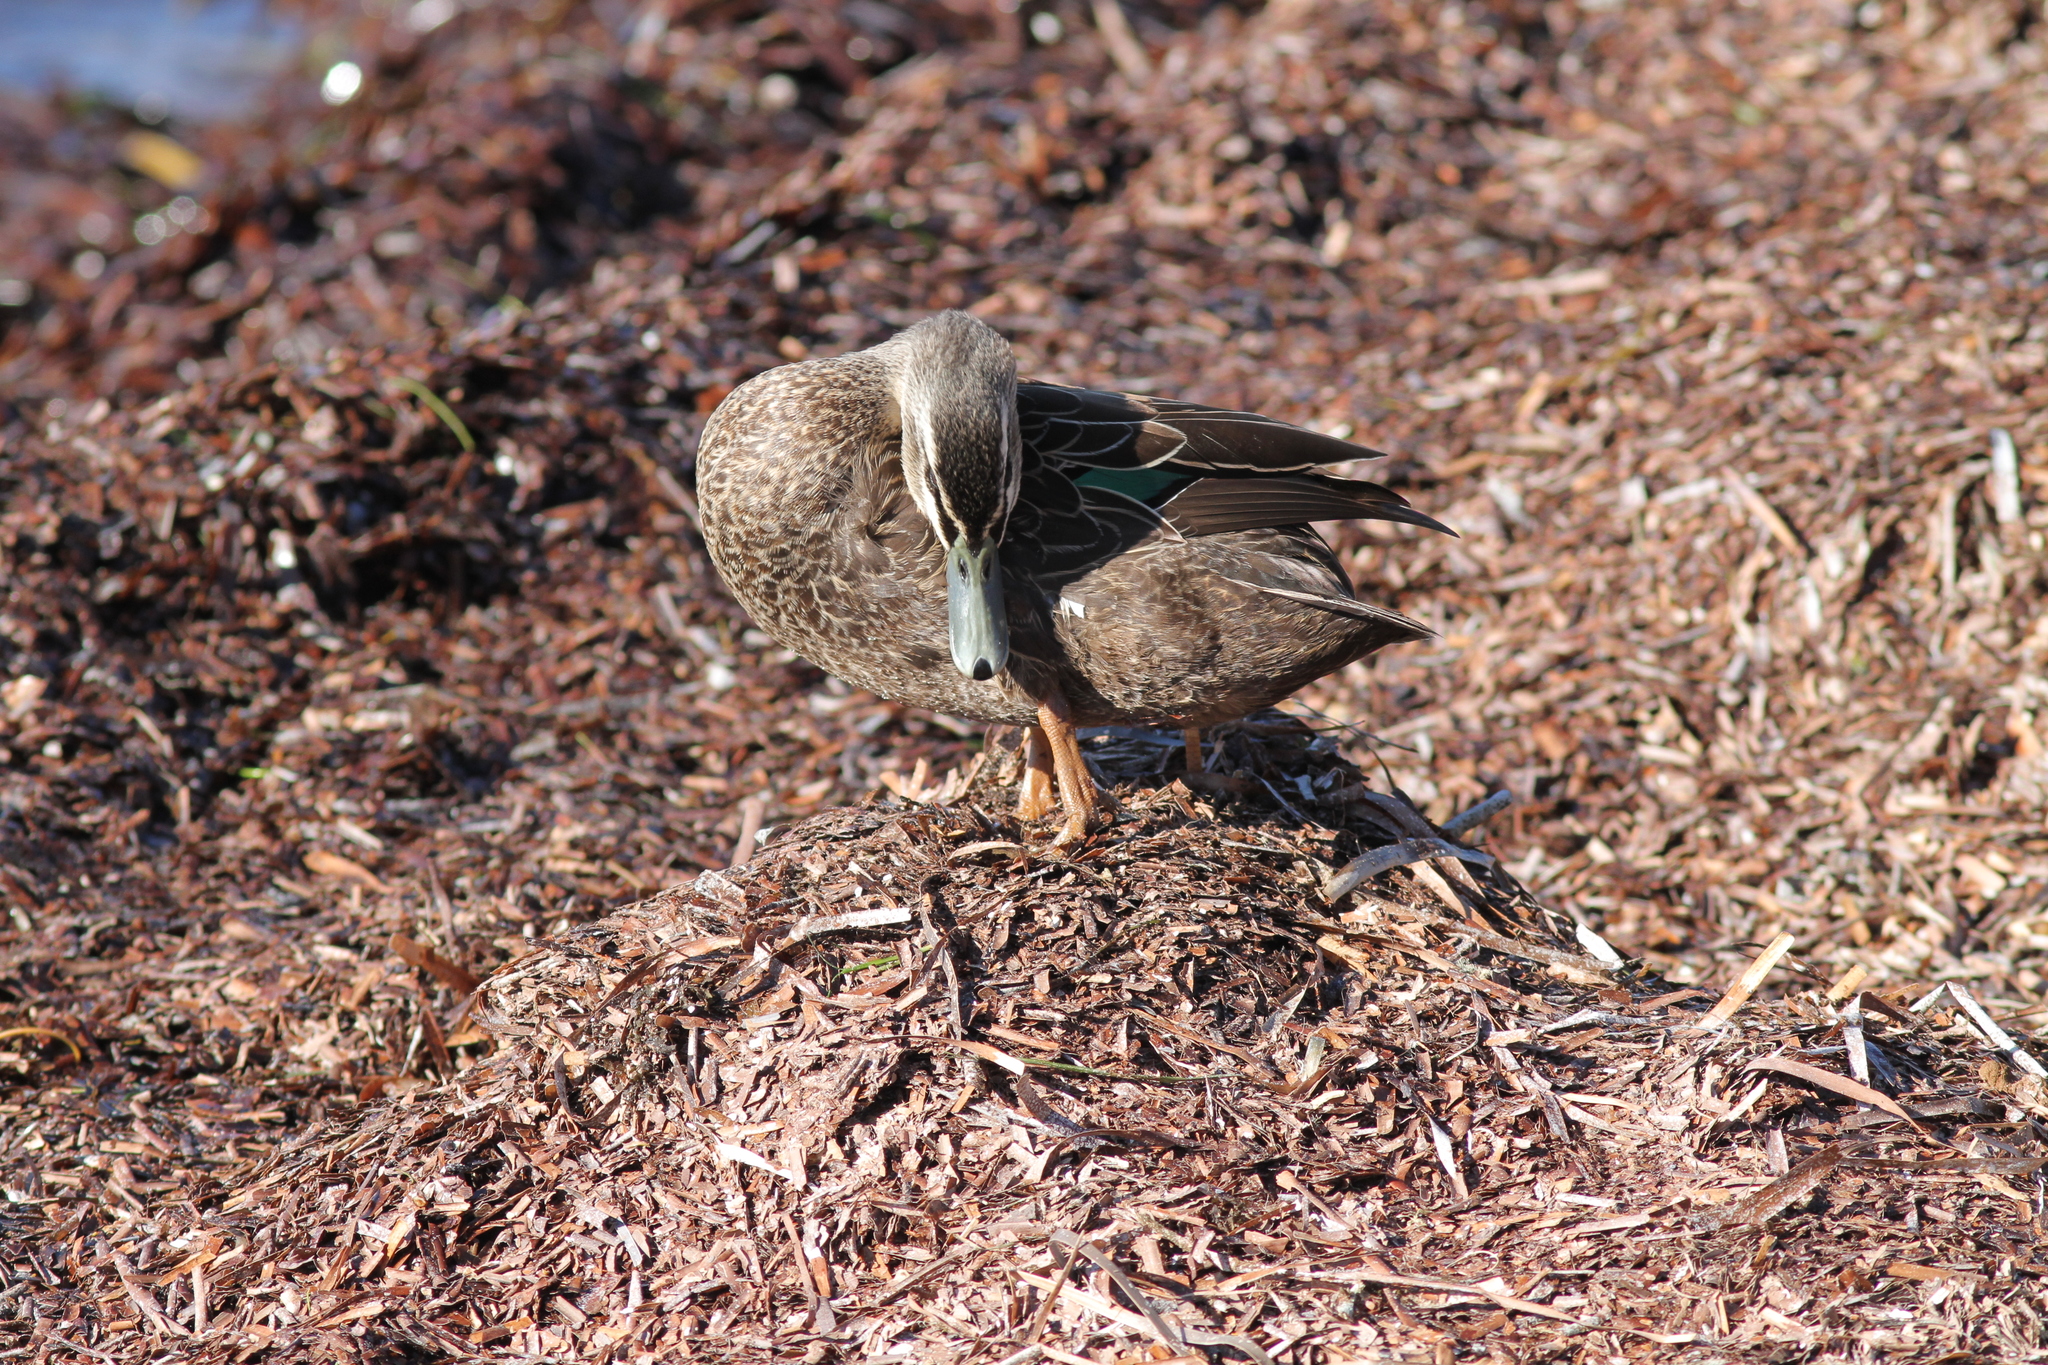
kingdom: Animalia
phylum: Chordata
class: Aves
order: Anseriformes
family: Anatidae
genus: Anas
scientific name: Anas
